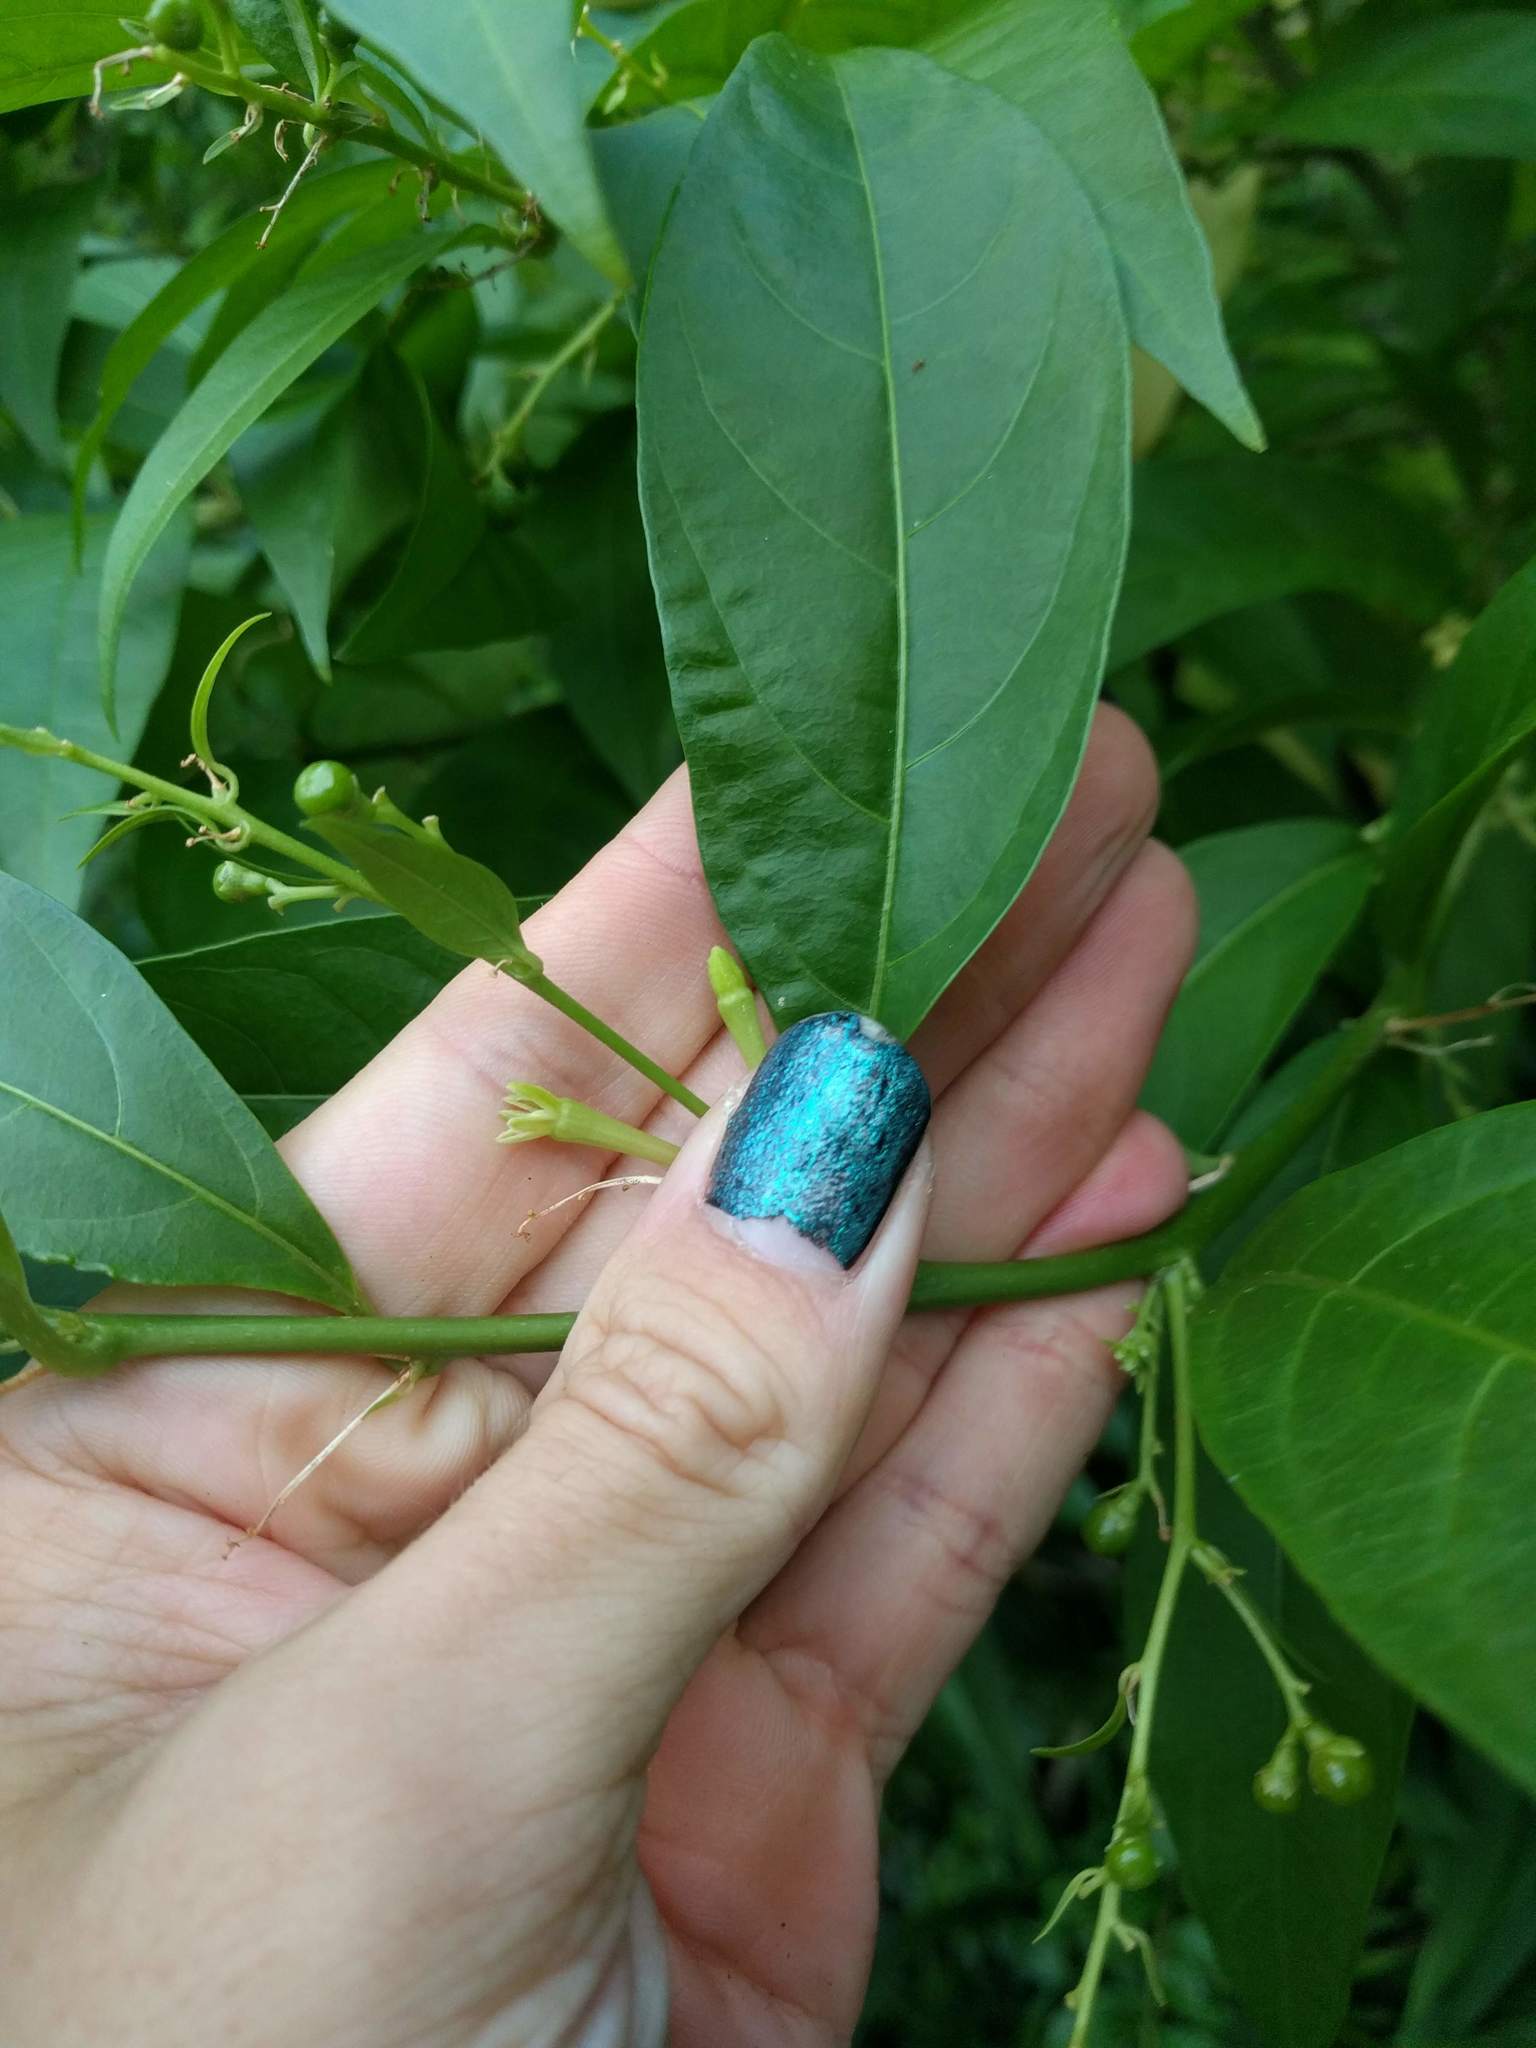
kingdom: Plantae
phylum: Tracheophyta
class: Magnoliopsida
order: Solanales
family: Solanaceae
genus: Cestrum
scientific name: Cestrum nocturnum
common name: Night jessamine
